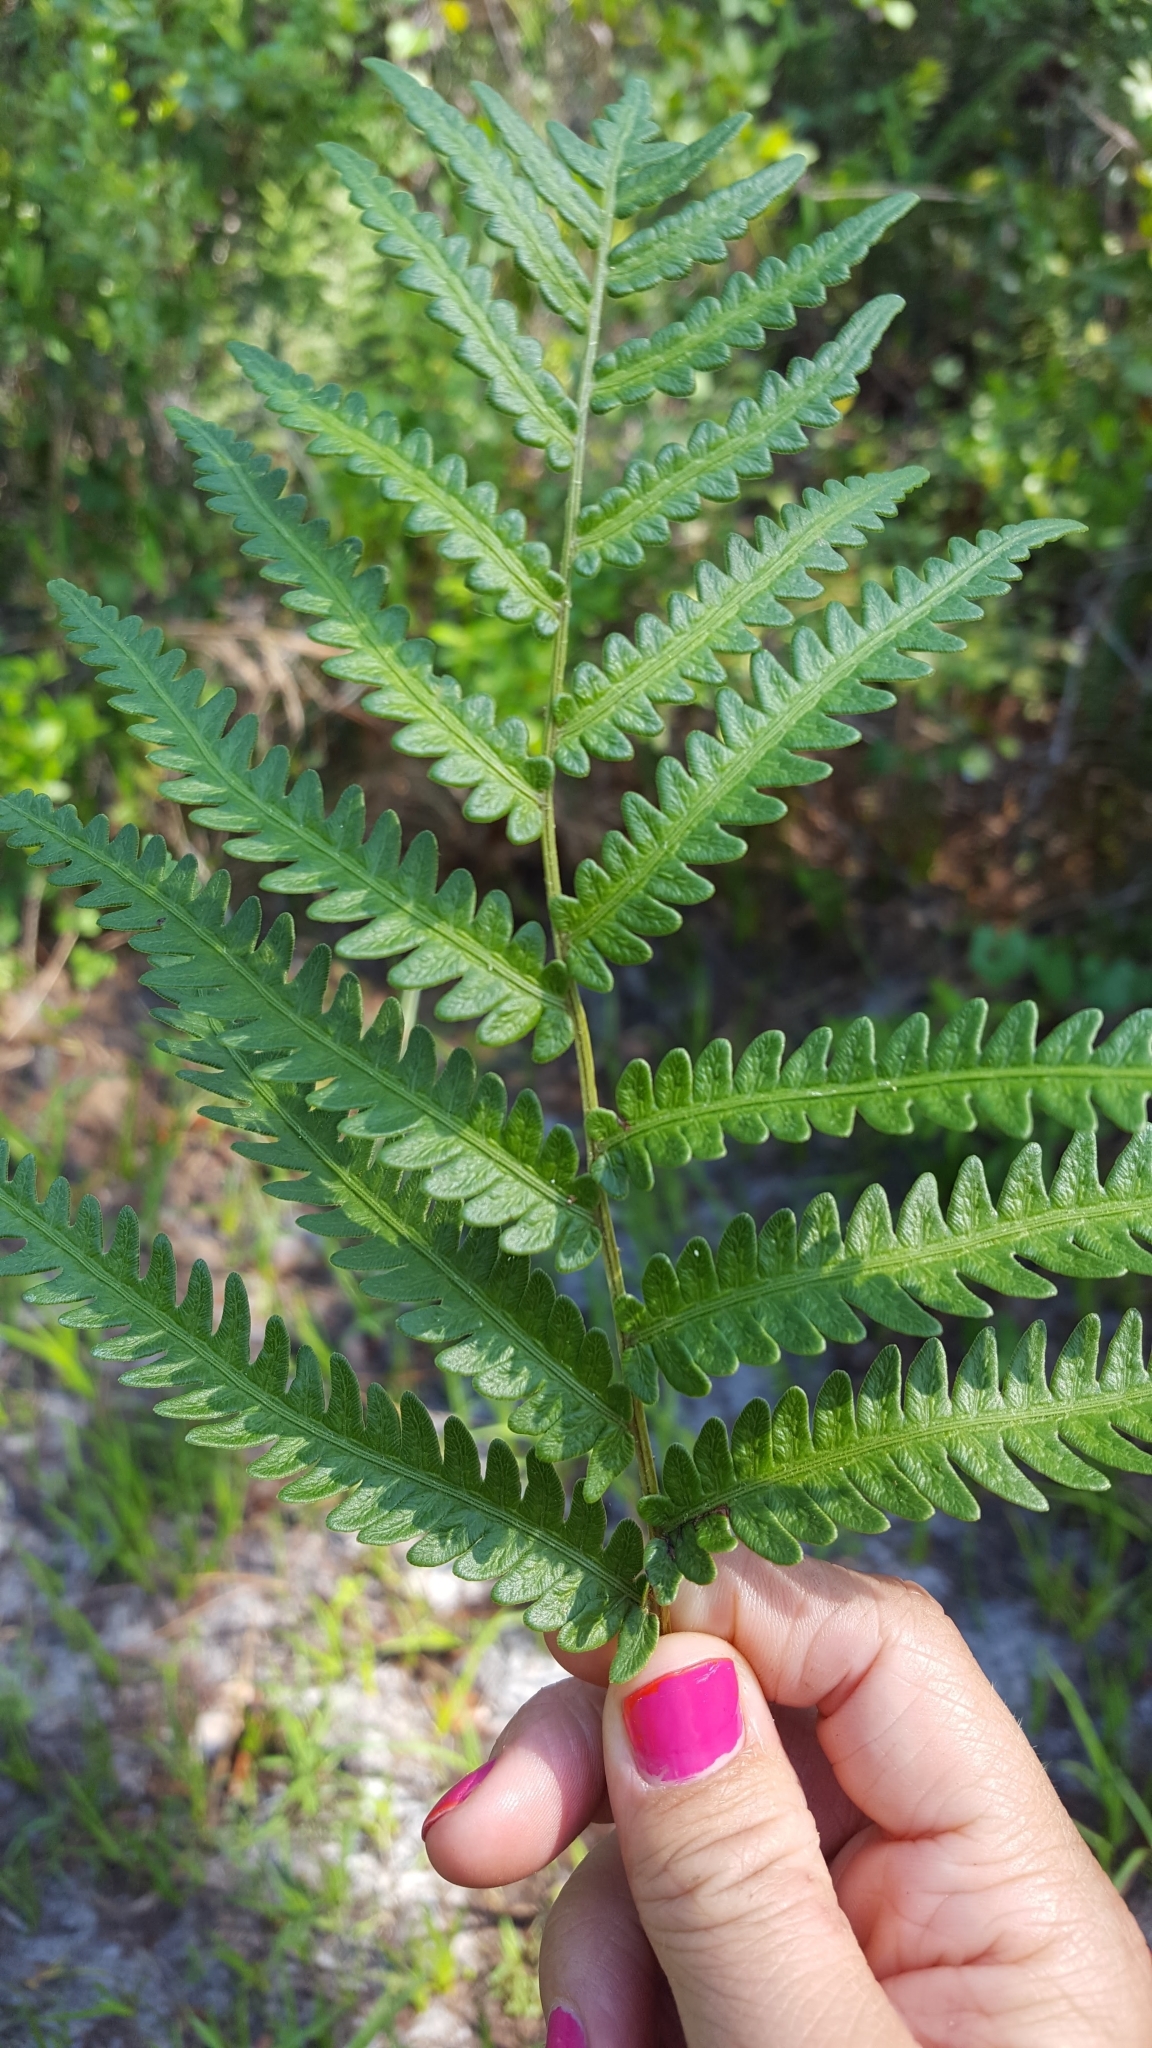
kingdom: Plantae
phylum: Tracheophyta
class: Polypodiopsida
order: Polypodiales
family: Blechnaceae
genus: Anchistea
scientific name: Anchistea virginica
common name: Virginia chain fern
